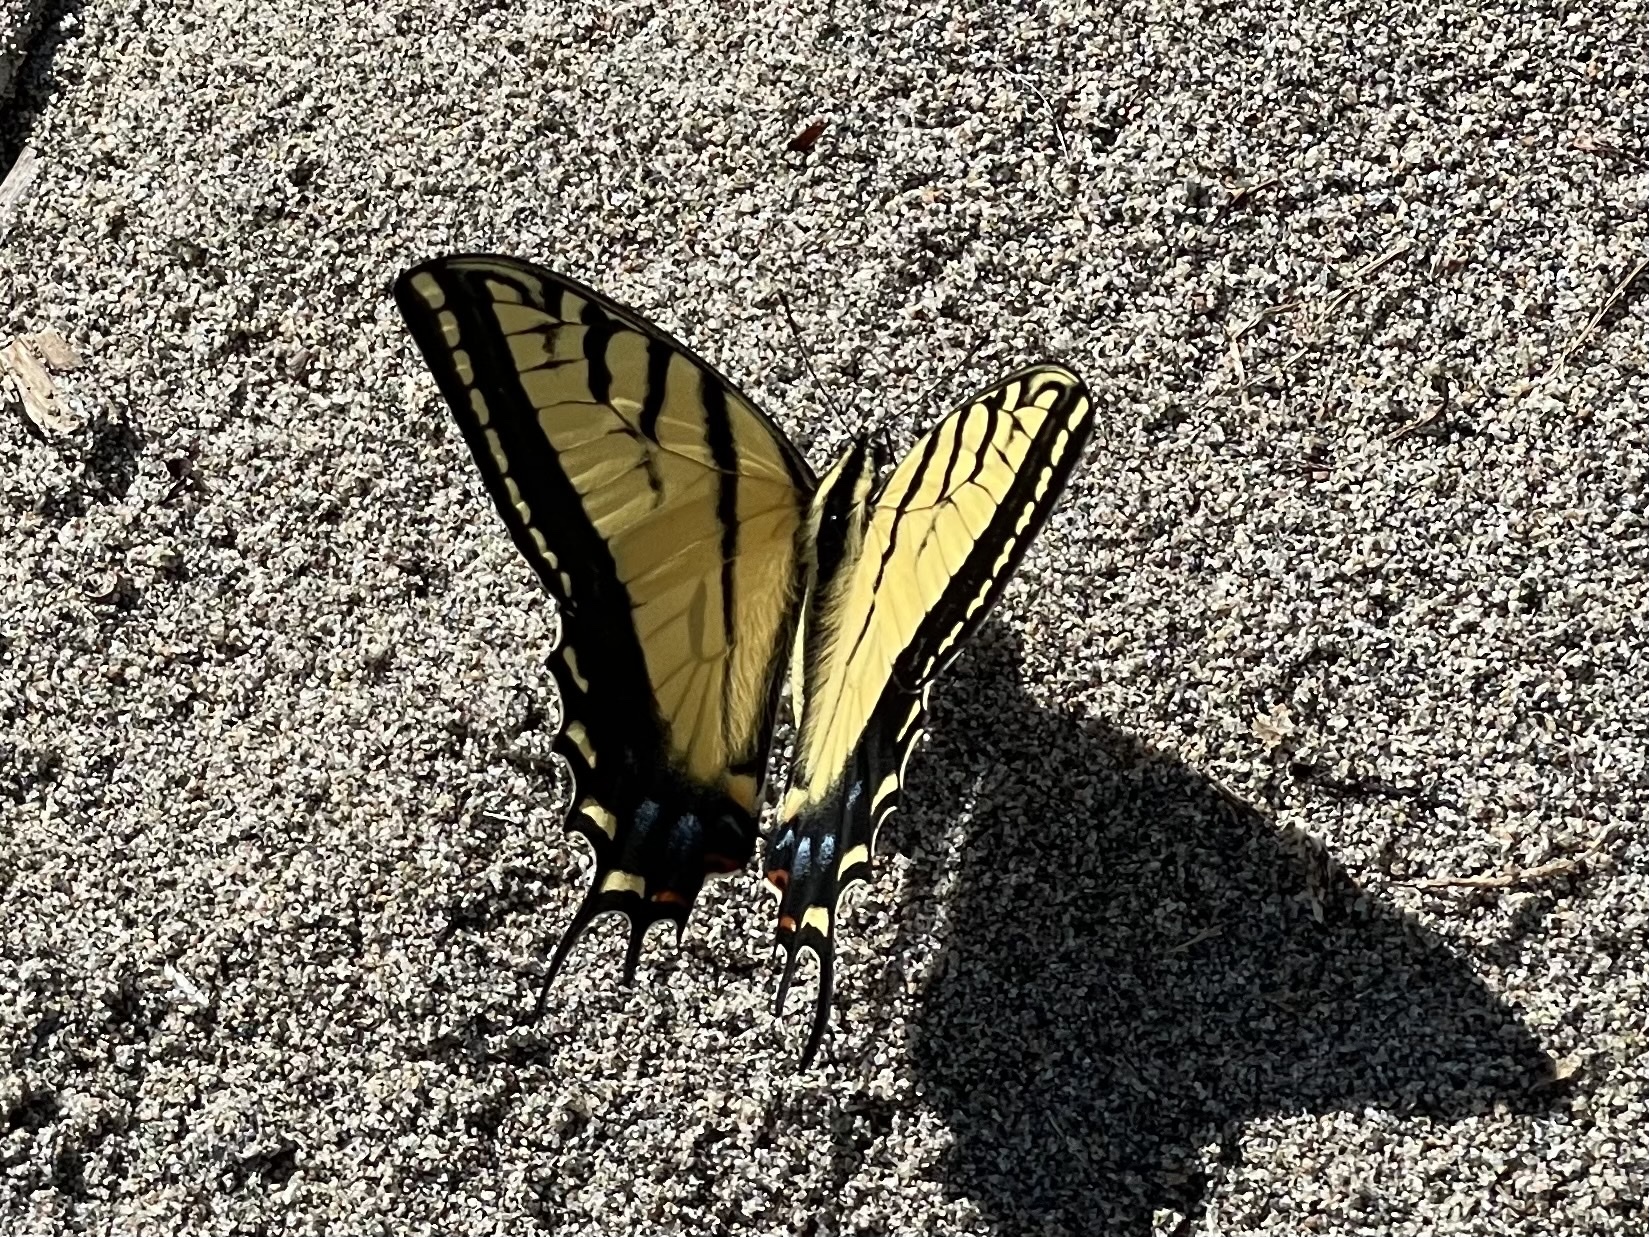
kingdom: Animalia
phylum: Arthropoda
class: Insecta
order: Lepidoptera
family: Papilionidae
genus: Papilio
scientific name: Papilio multicaudata
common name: Two-tailed tiger swallowtail
